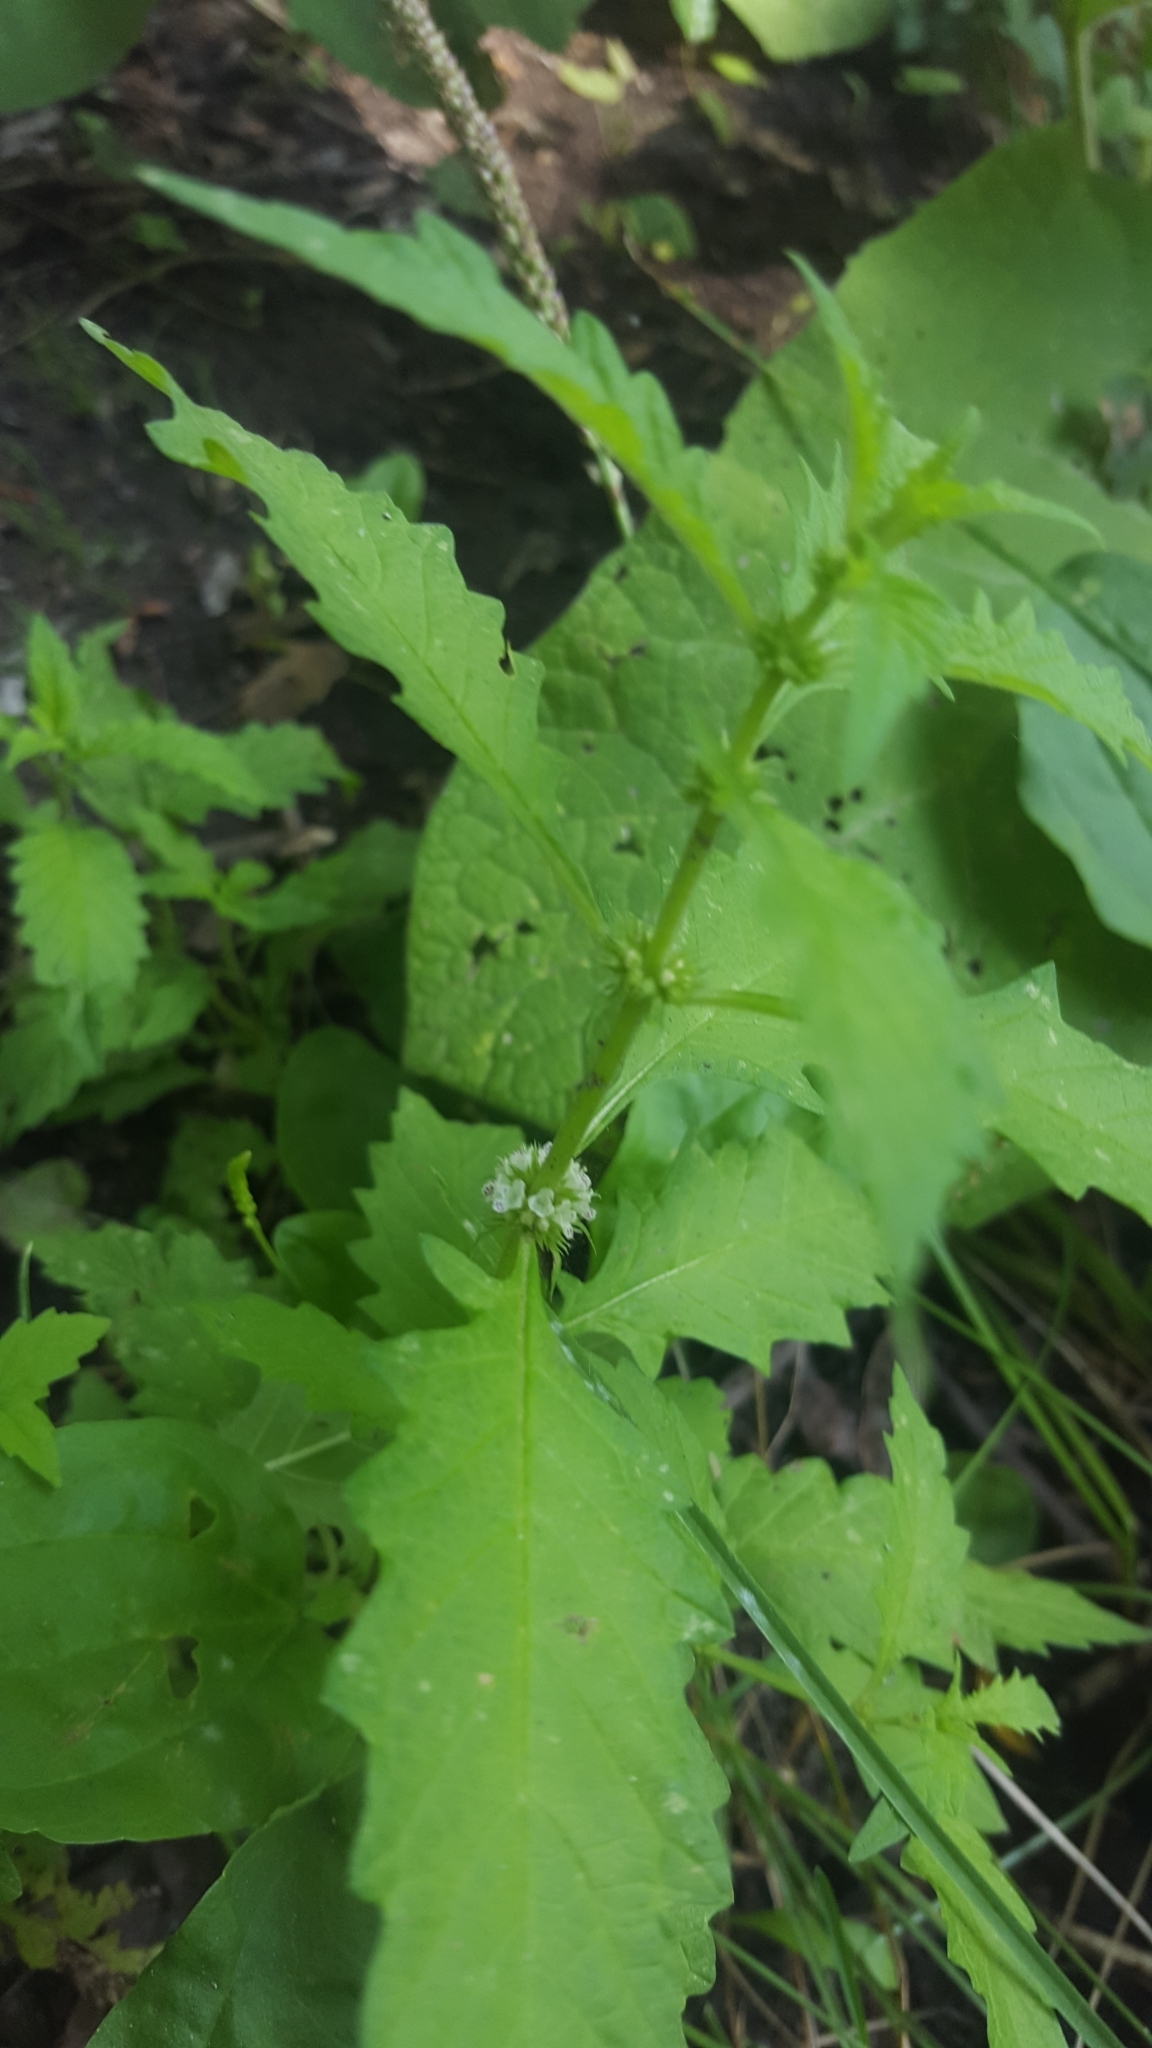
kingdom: Plantae
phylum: Tracheophyta
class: Magnoliopsida
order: Lamiales
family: Lamiaceae
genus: Lycopus
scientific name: Lycopus europaeus
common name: European bugleweed
